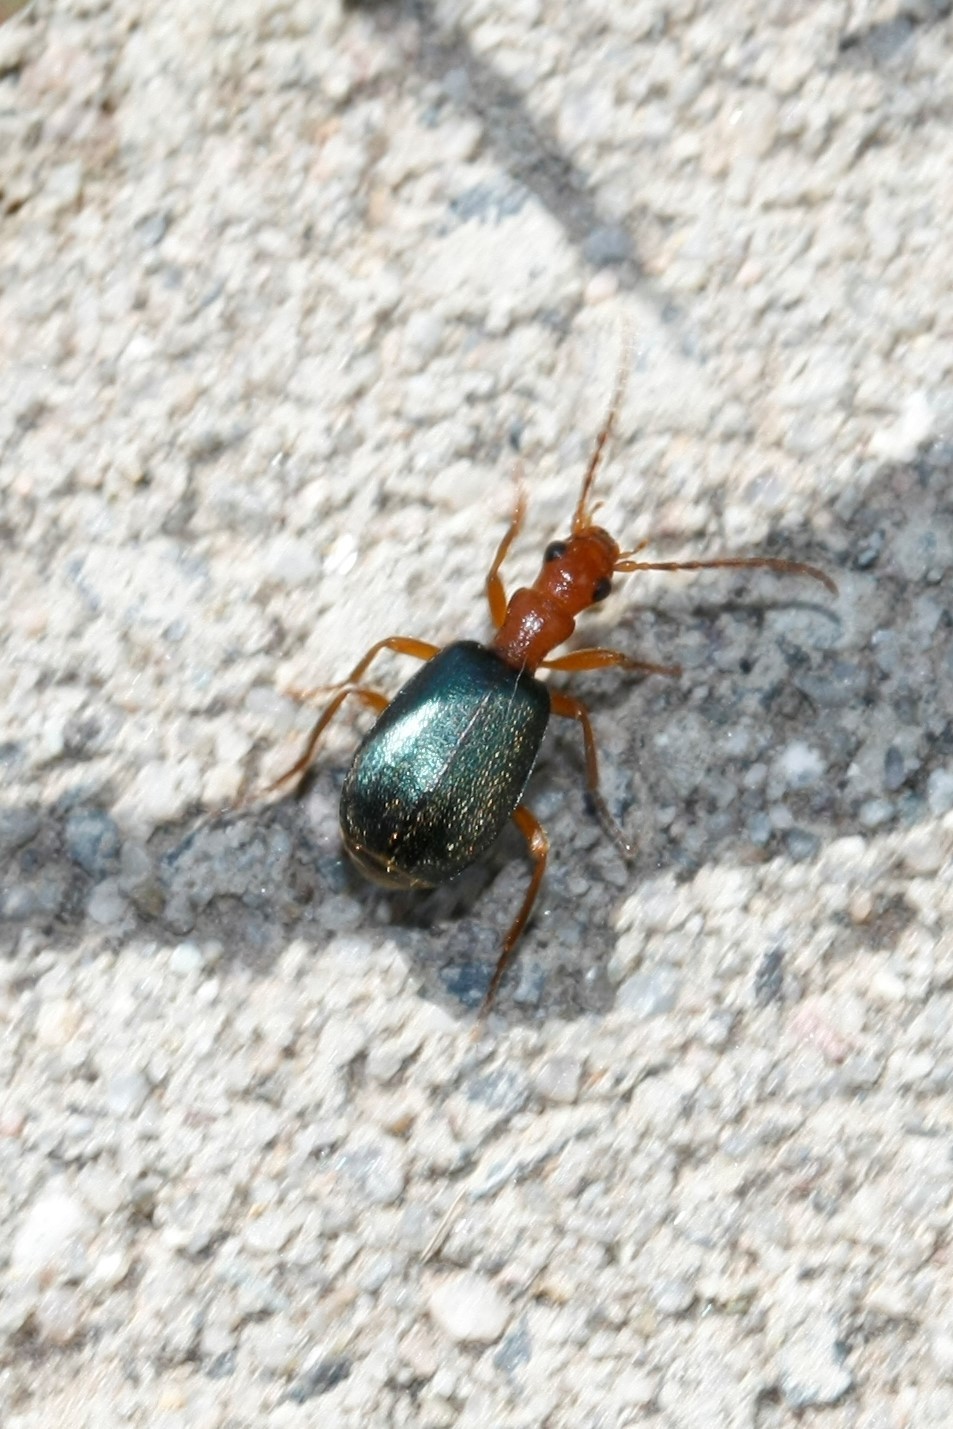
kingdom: Animalia
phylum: Arthropoda
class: Insecta
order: Coleoptera
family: Carabidae
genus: Brachinus
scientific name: Brachinus explodens
